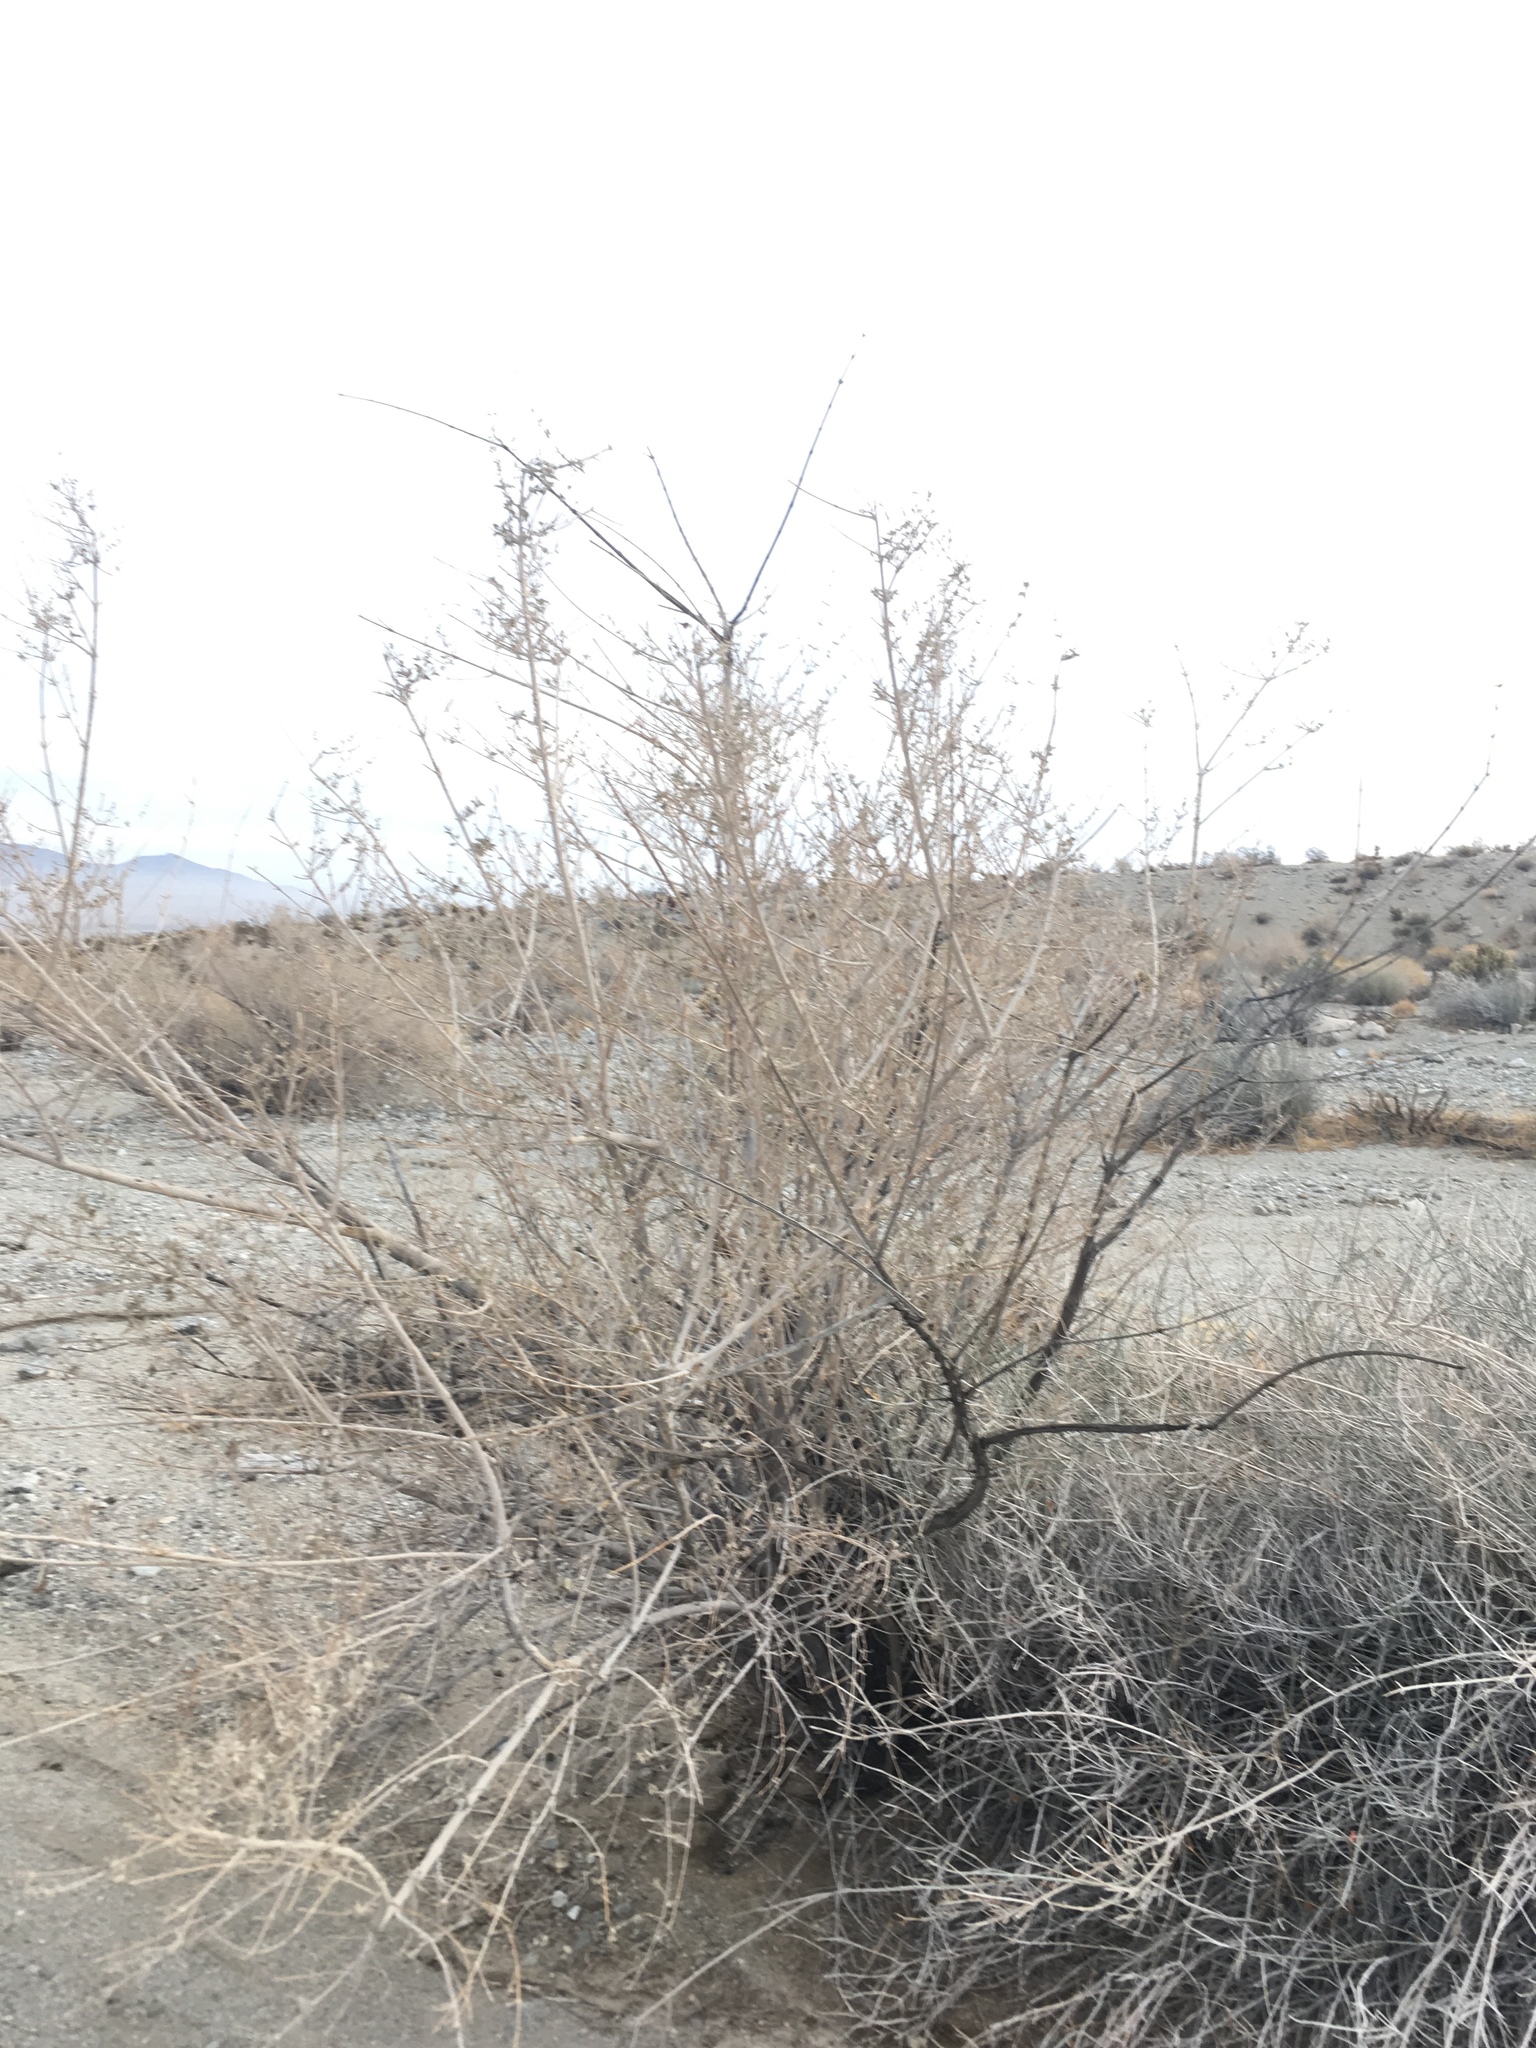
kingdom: Plantae
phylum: Tracheophyta
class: Magnoliopsida
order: Lamiales
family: Lamiaceae
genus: Condea
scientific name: Condea emoryi
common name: Chia
